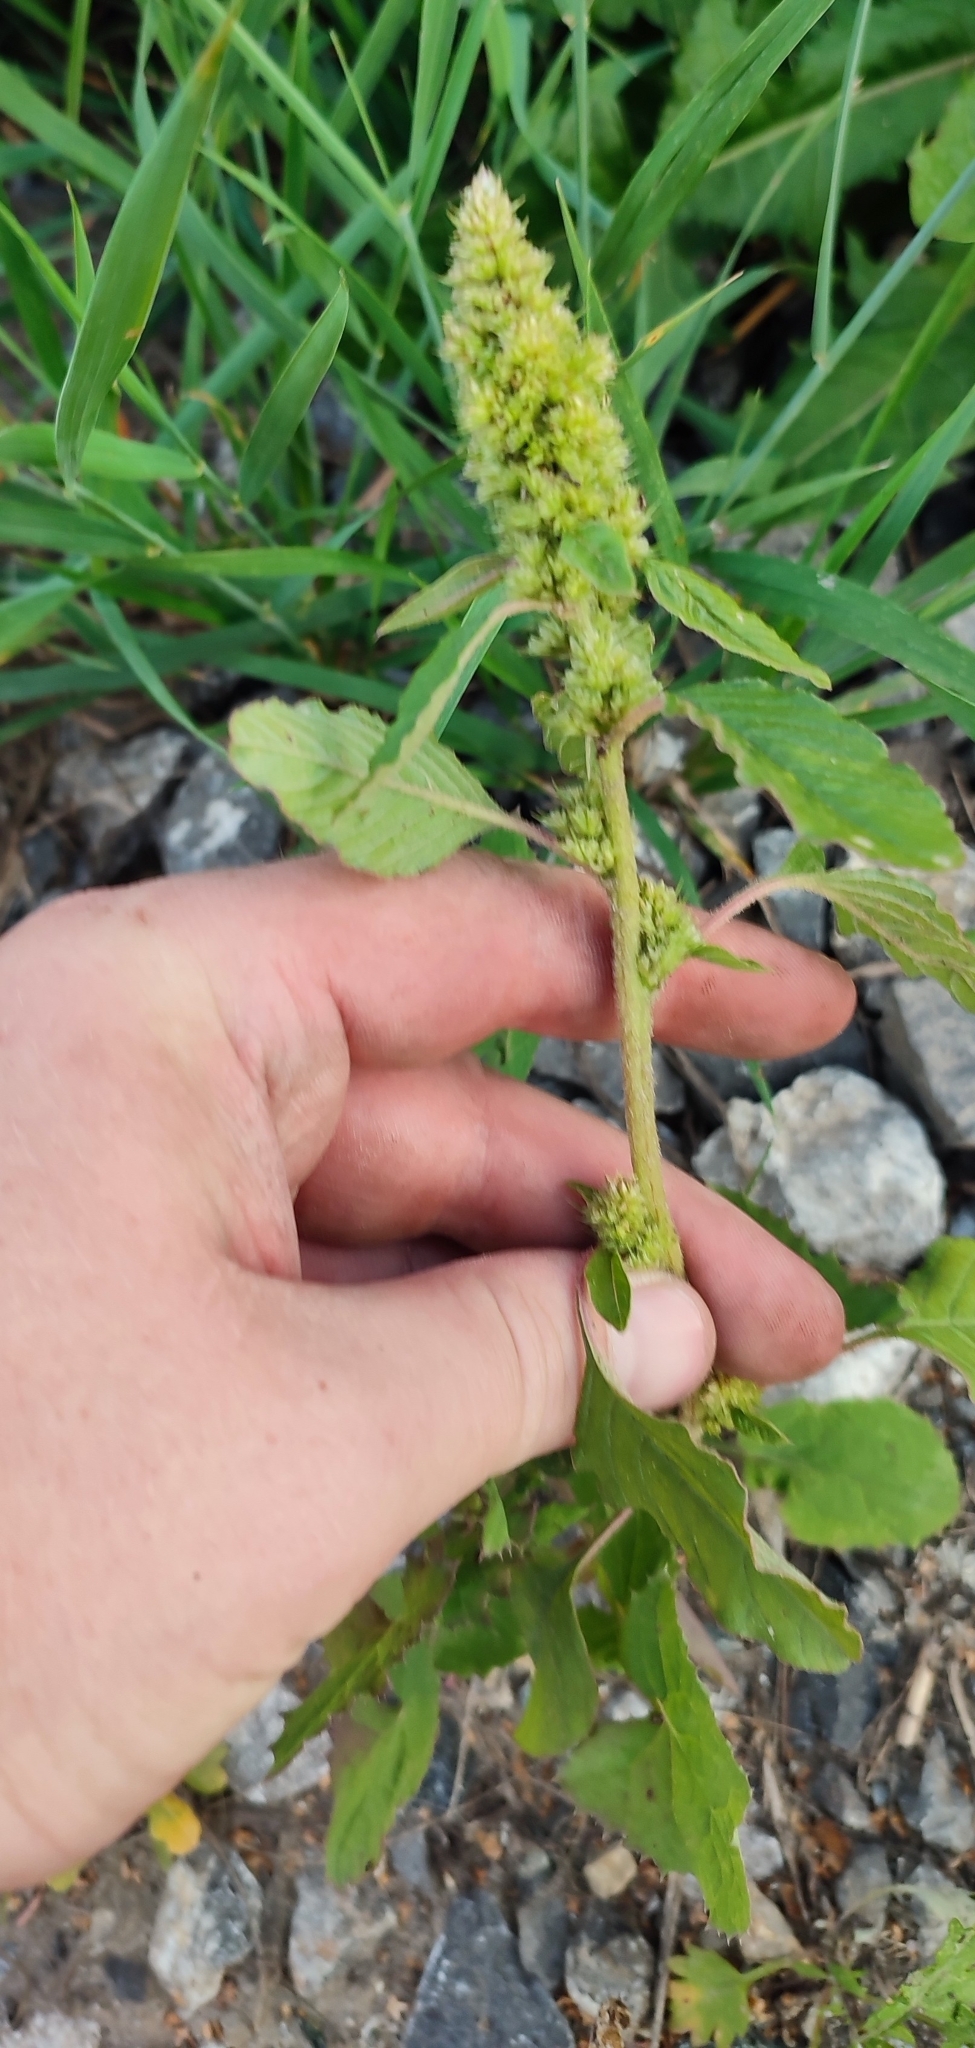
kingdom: Plantae
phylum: Tracheophyta
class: Magnoliopsida
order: Caryophyllales
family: Amaranthaceae
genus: Amaranthus
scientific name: Amaranthus retroflexus
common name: Redroot amaranth
